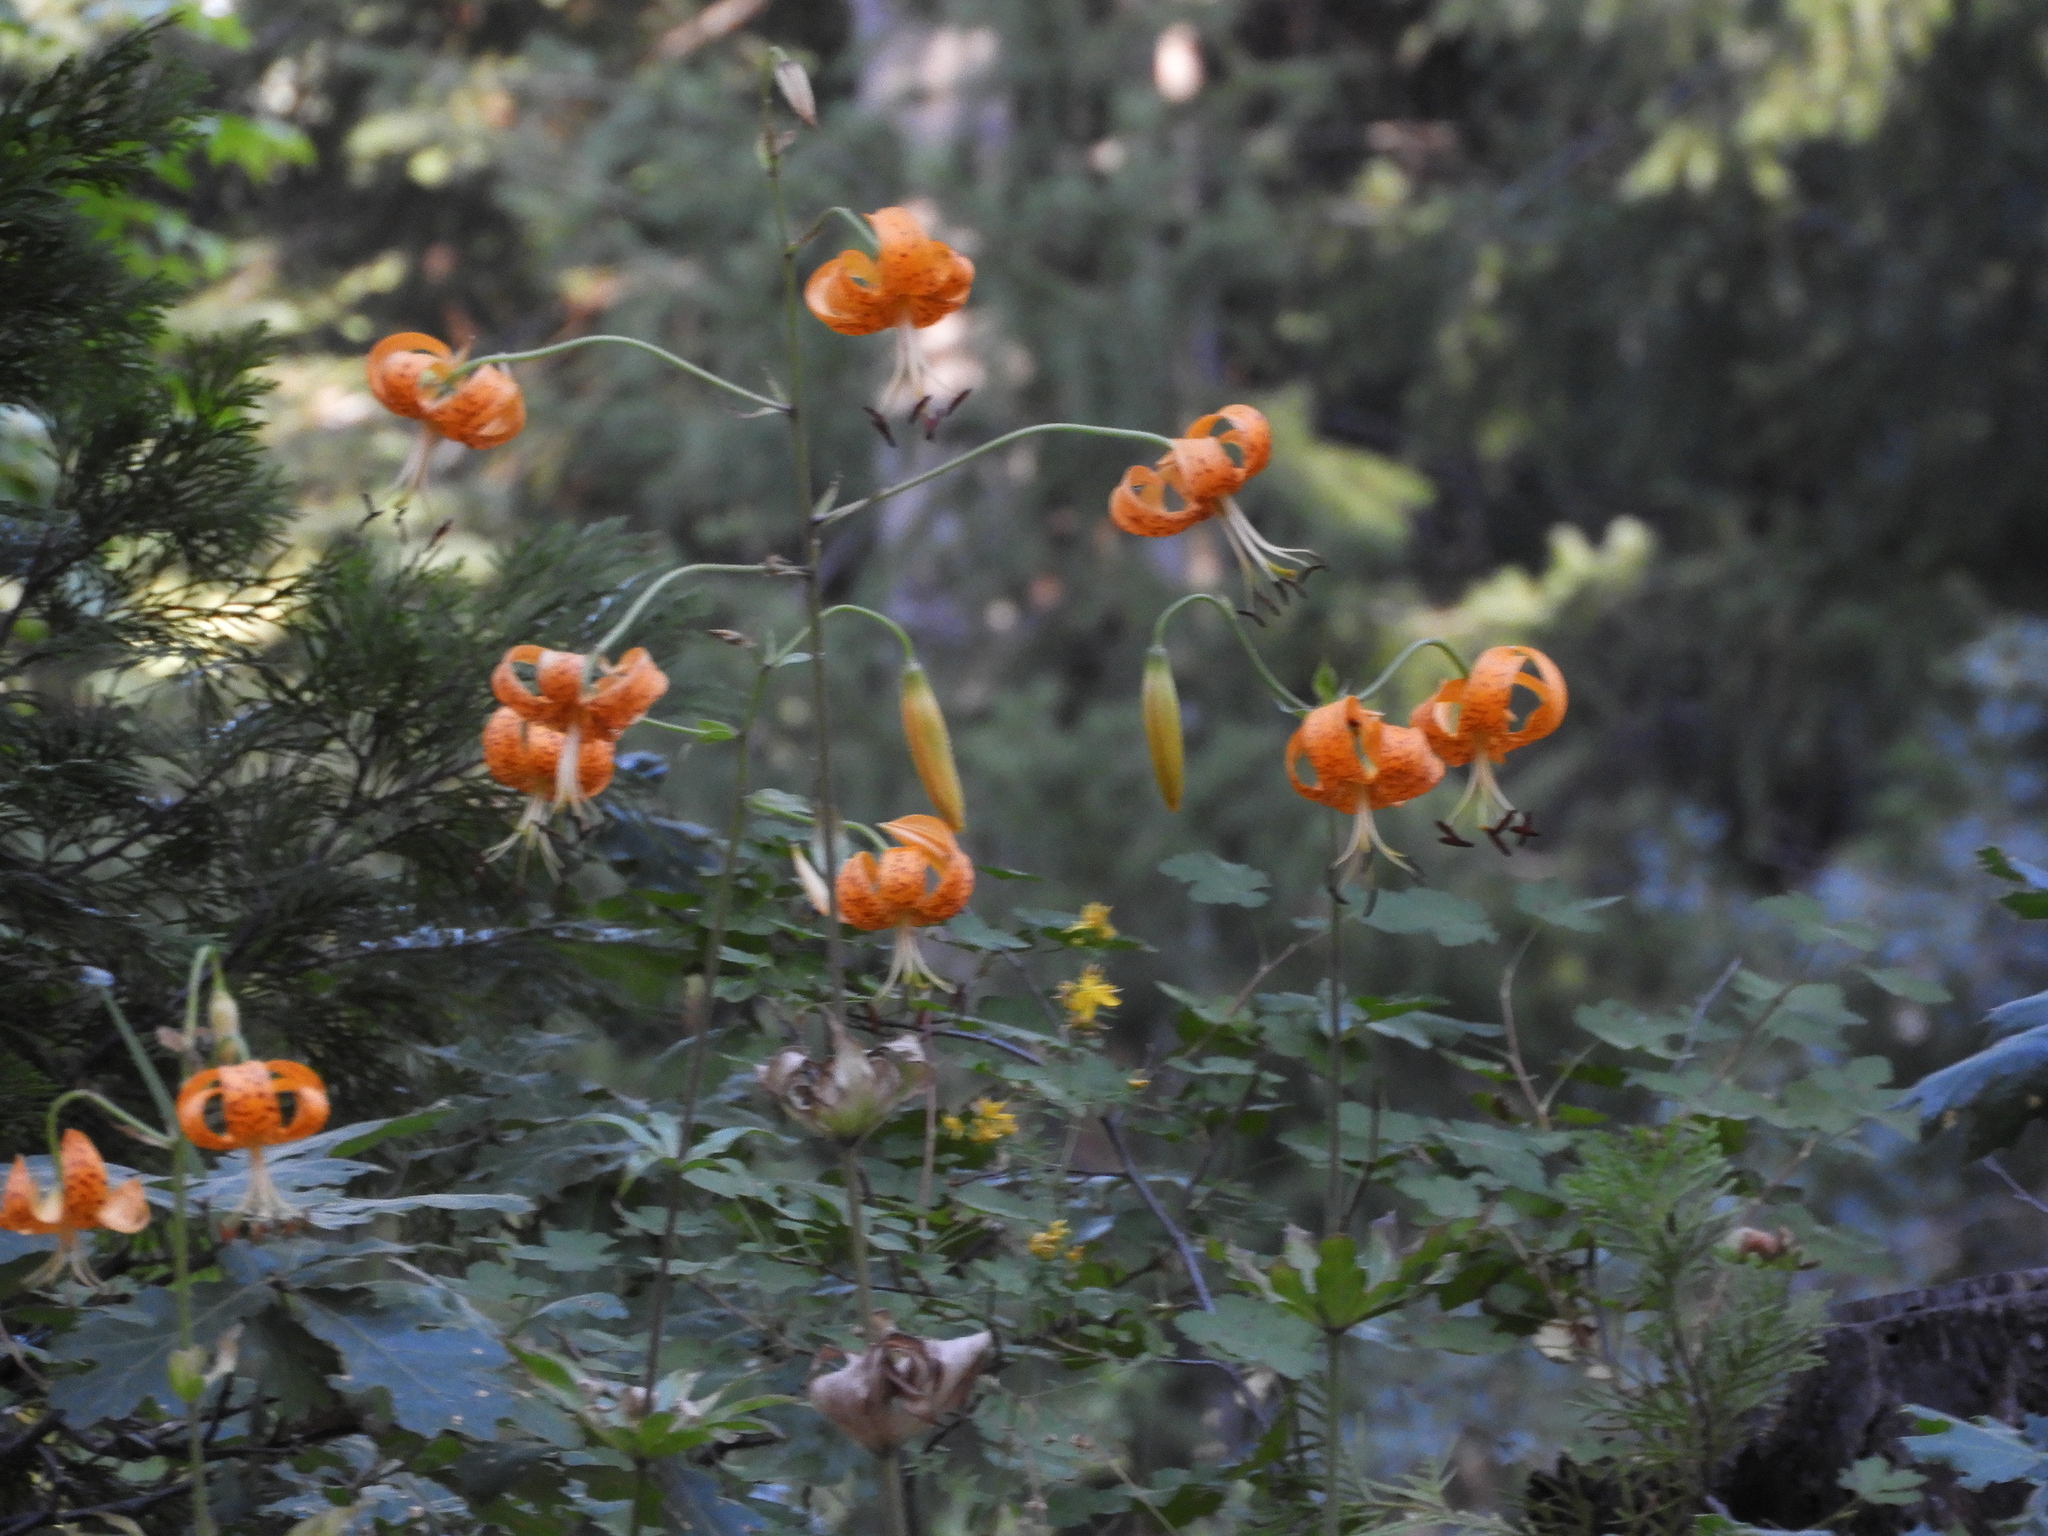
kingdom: Plantae
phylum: Tracheophyta
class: Liliopsida
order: Liliales
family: Liliaceae
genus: Lilium
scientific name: Lilium humboldtii
